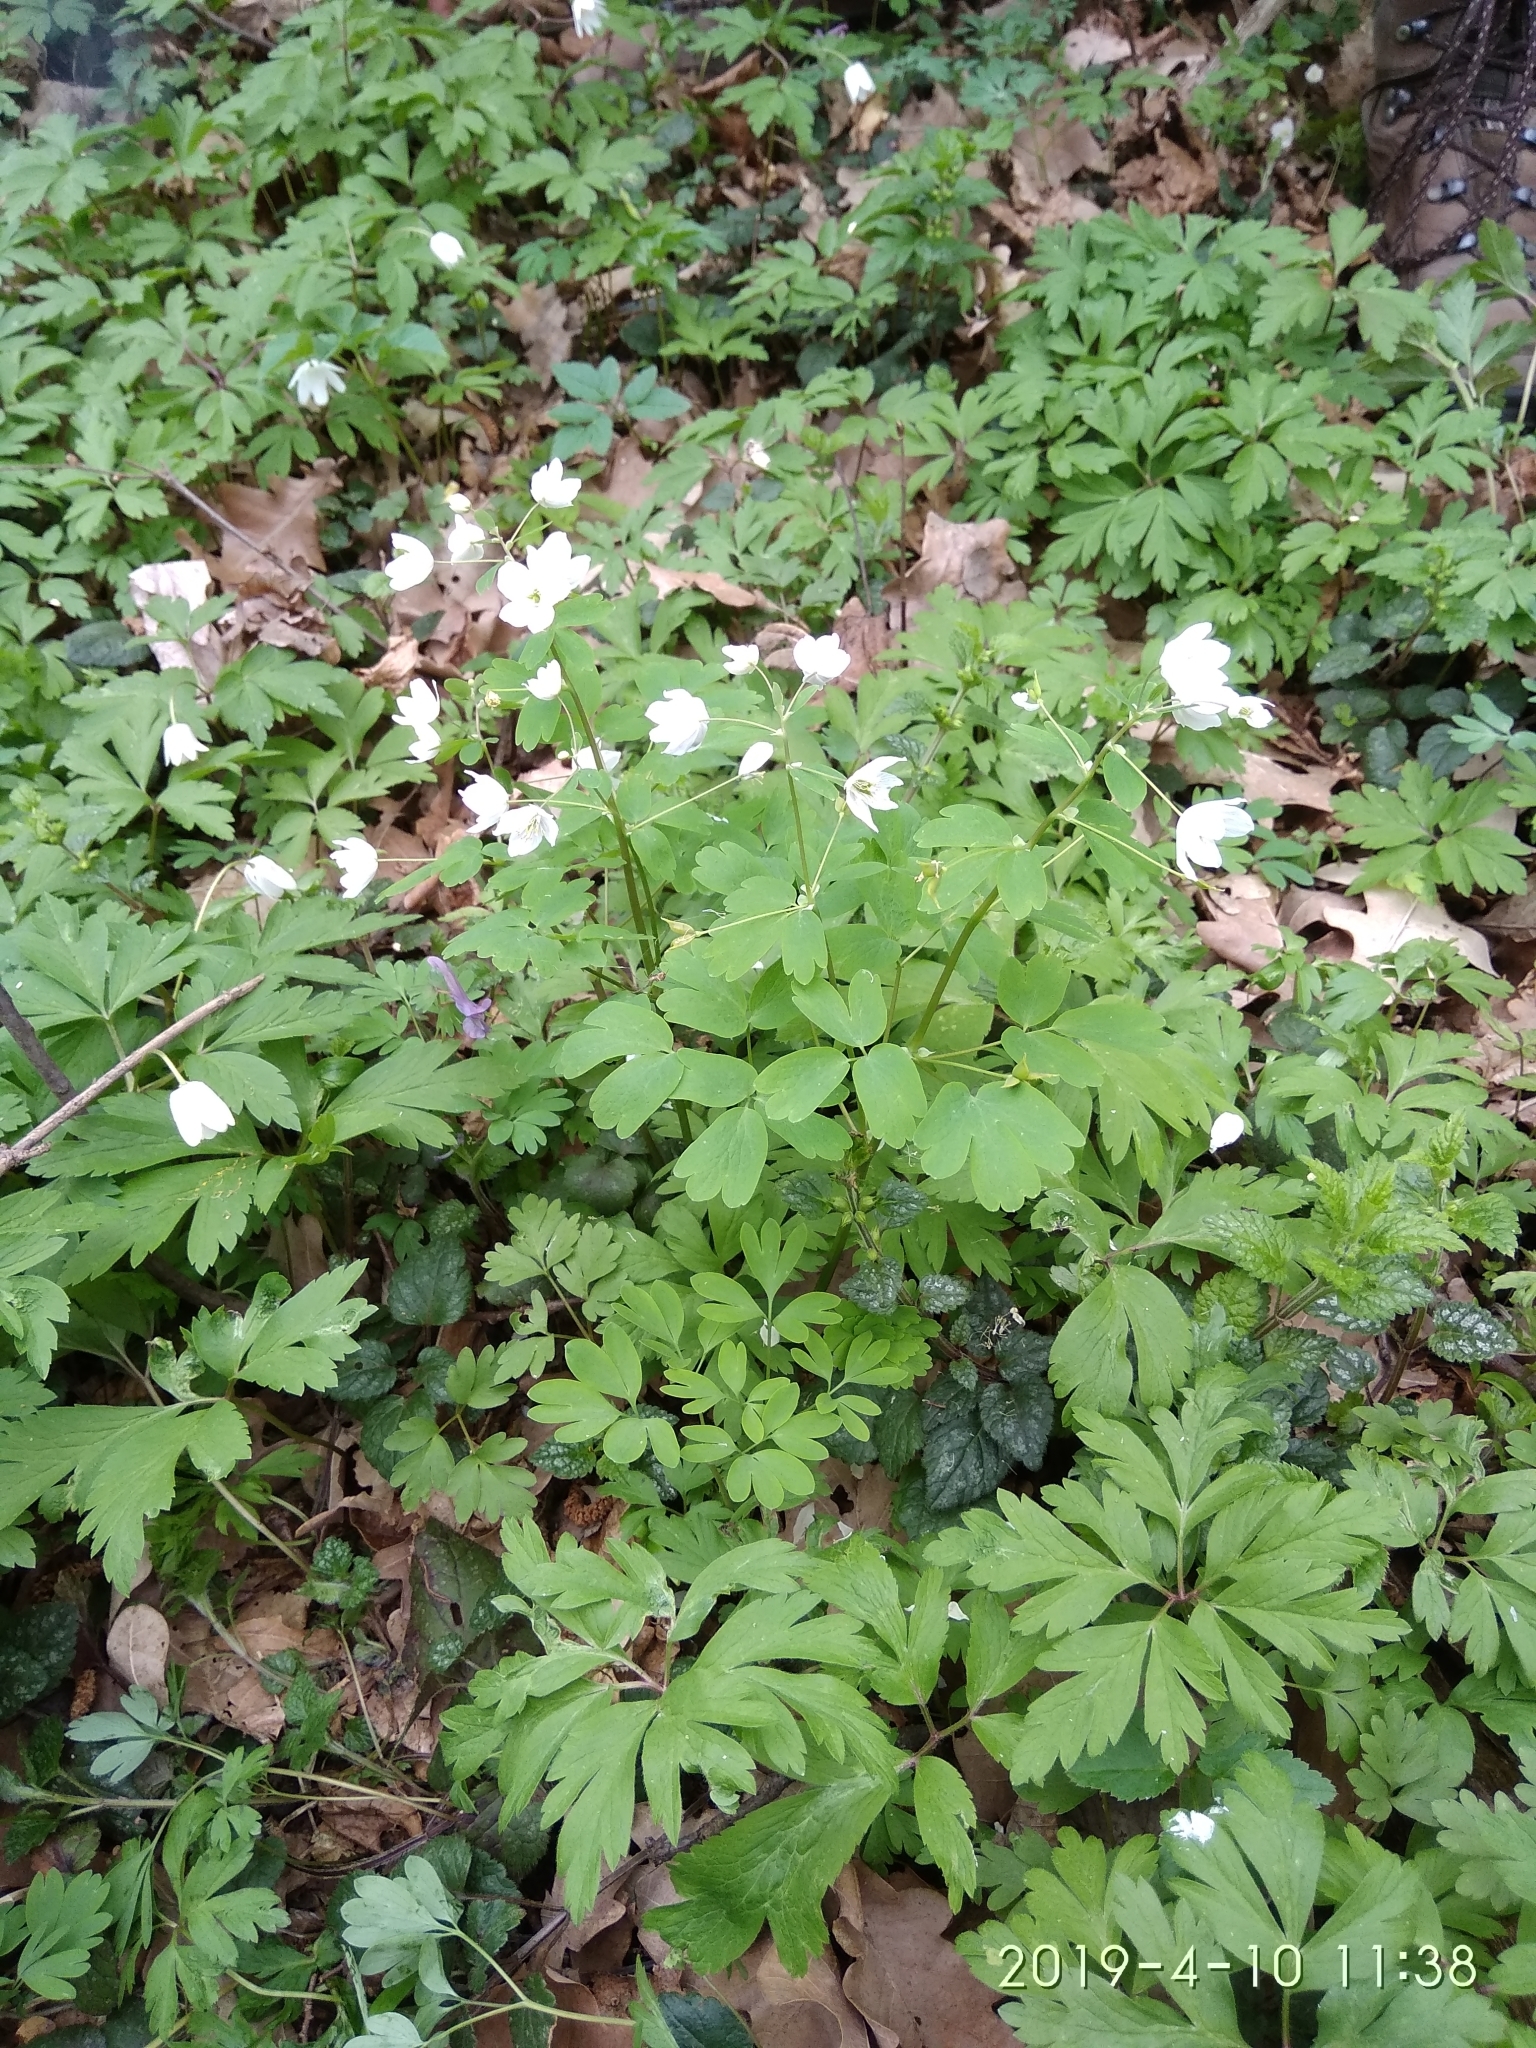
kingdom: Plantae
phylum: Tracheophyta
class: Magnoliopsida
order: Ranunculales
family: Ranunculaceae
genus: Isopyrum
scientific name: Isopyrum thalictroides
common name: Isopyrum
